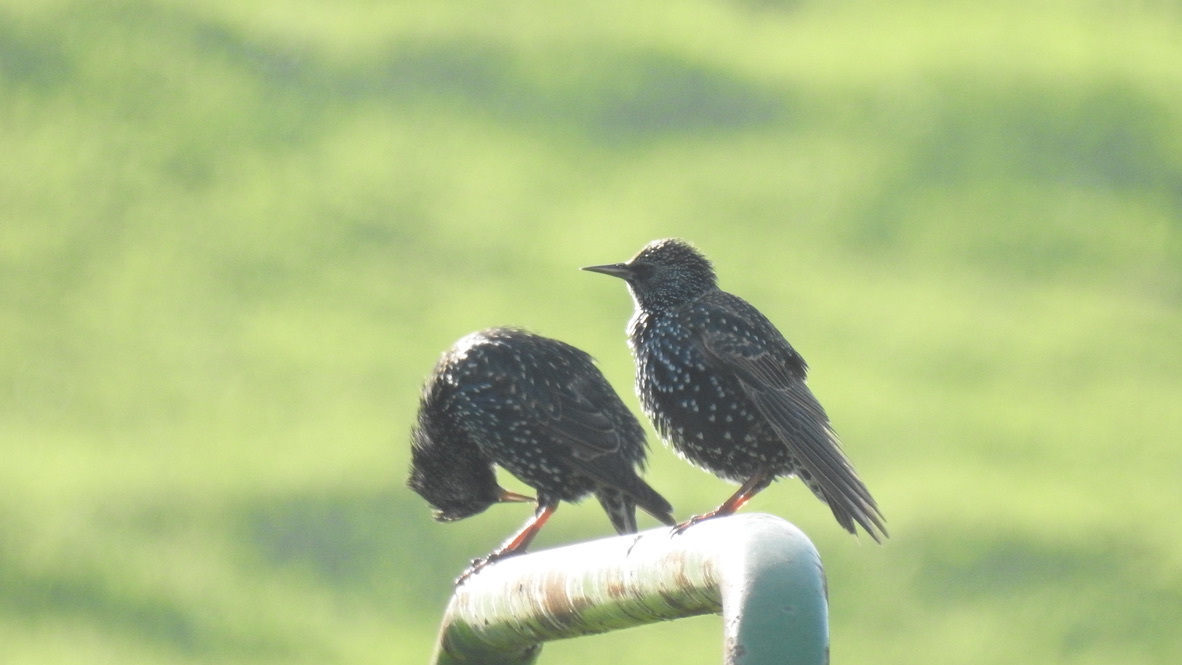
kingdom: Animalia
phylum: Chordata
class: Aves
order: Passeriformes
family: Sturnidae
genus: Sturnus
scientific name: Sturnus vulgaris
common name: Common starling
